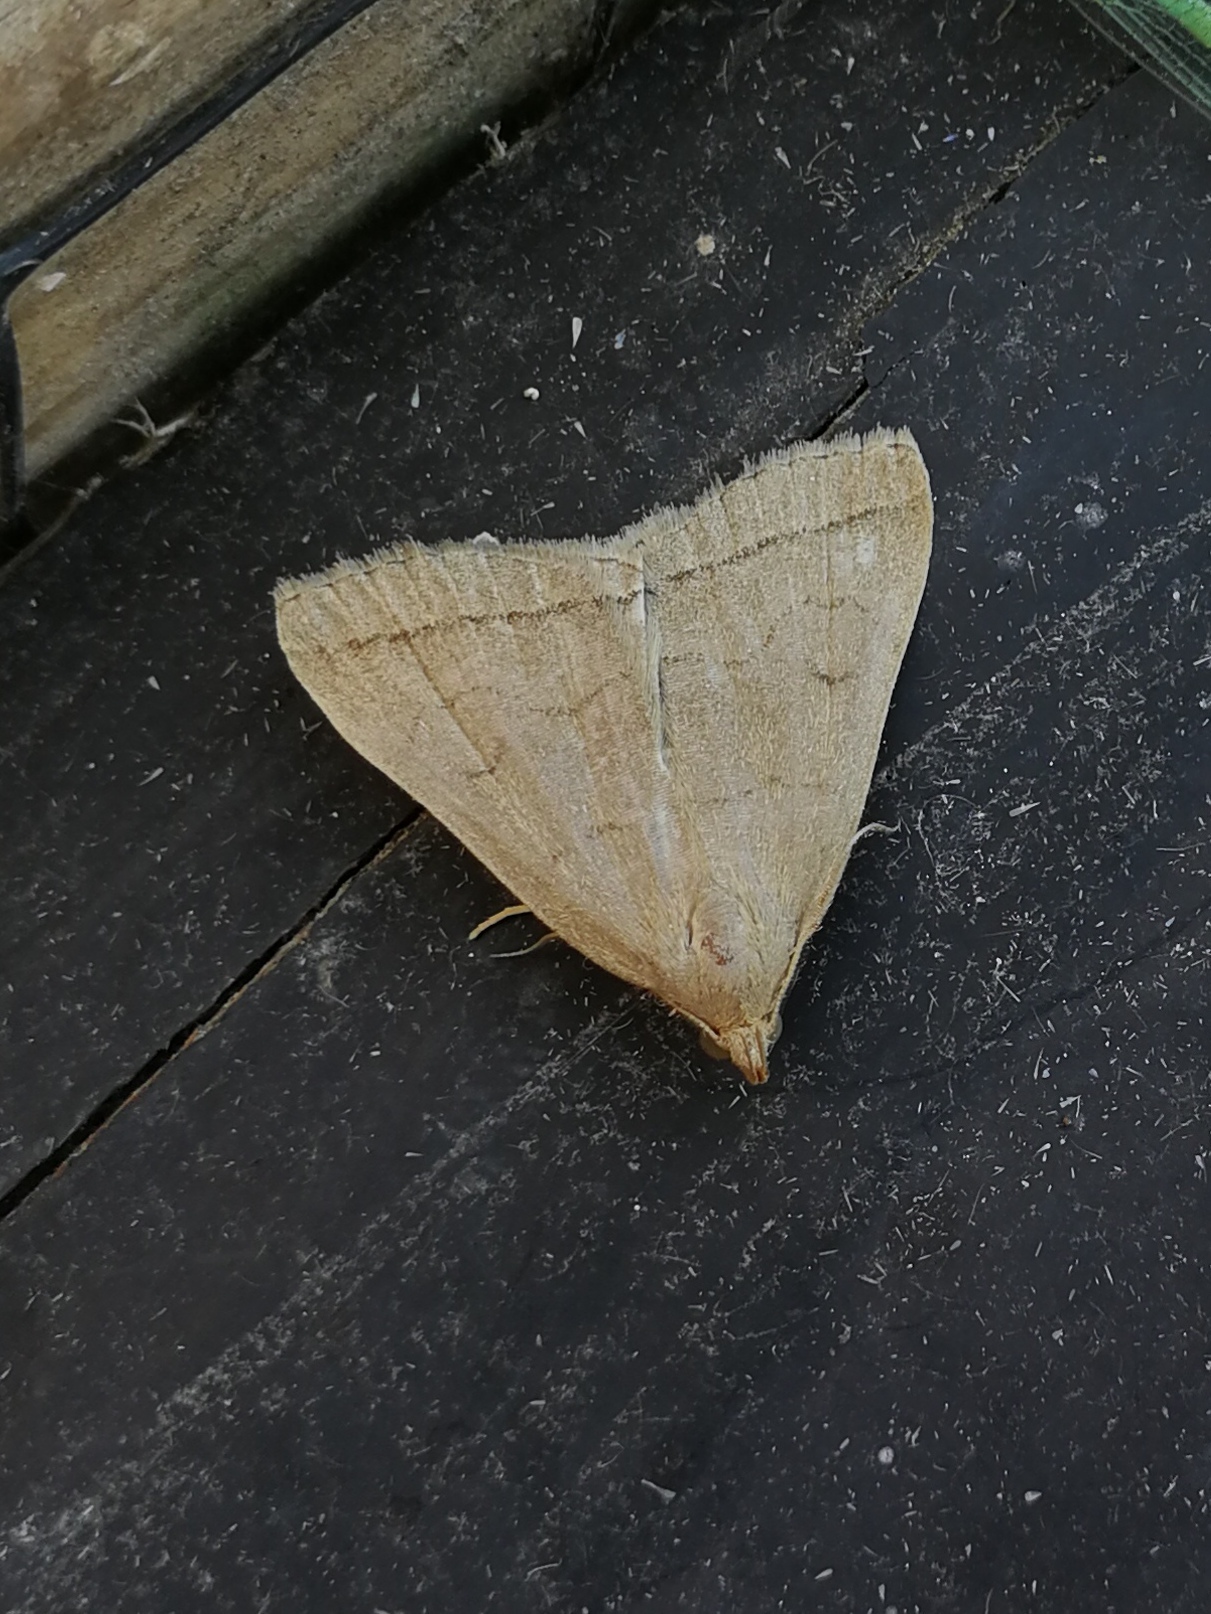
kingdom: Animalia
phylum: Arthropoda
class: Insecta
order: Lepidoptera
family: Erebidae
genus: Herminia
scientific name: Herminia tarsicrinalis
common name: Shaded fan-foot
